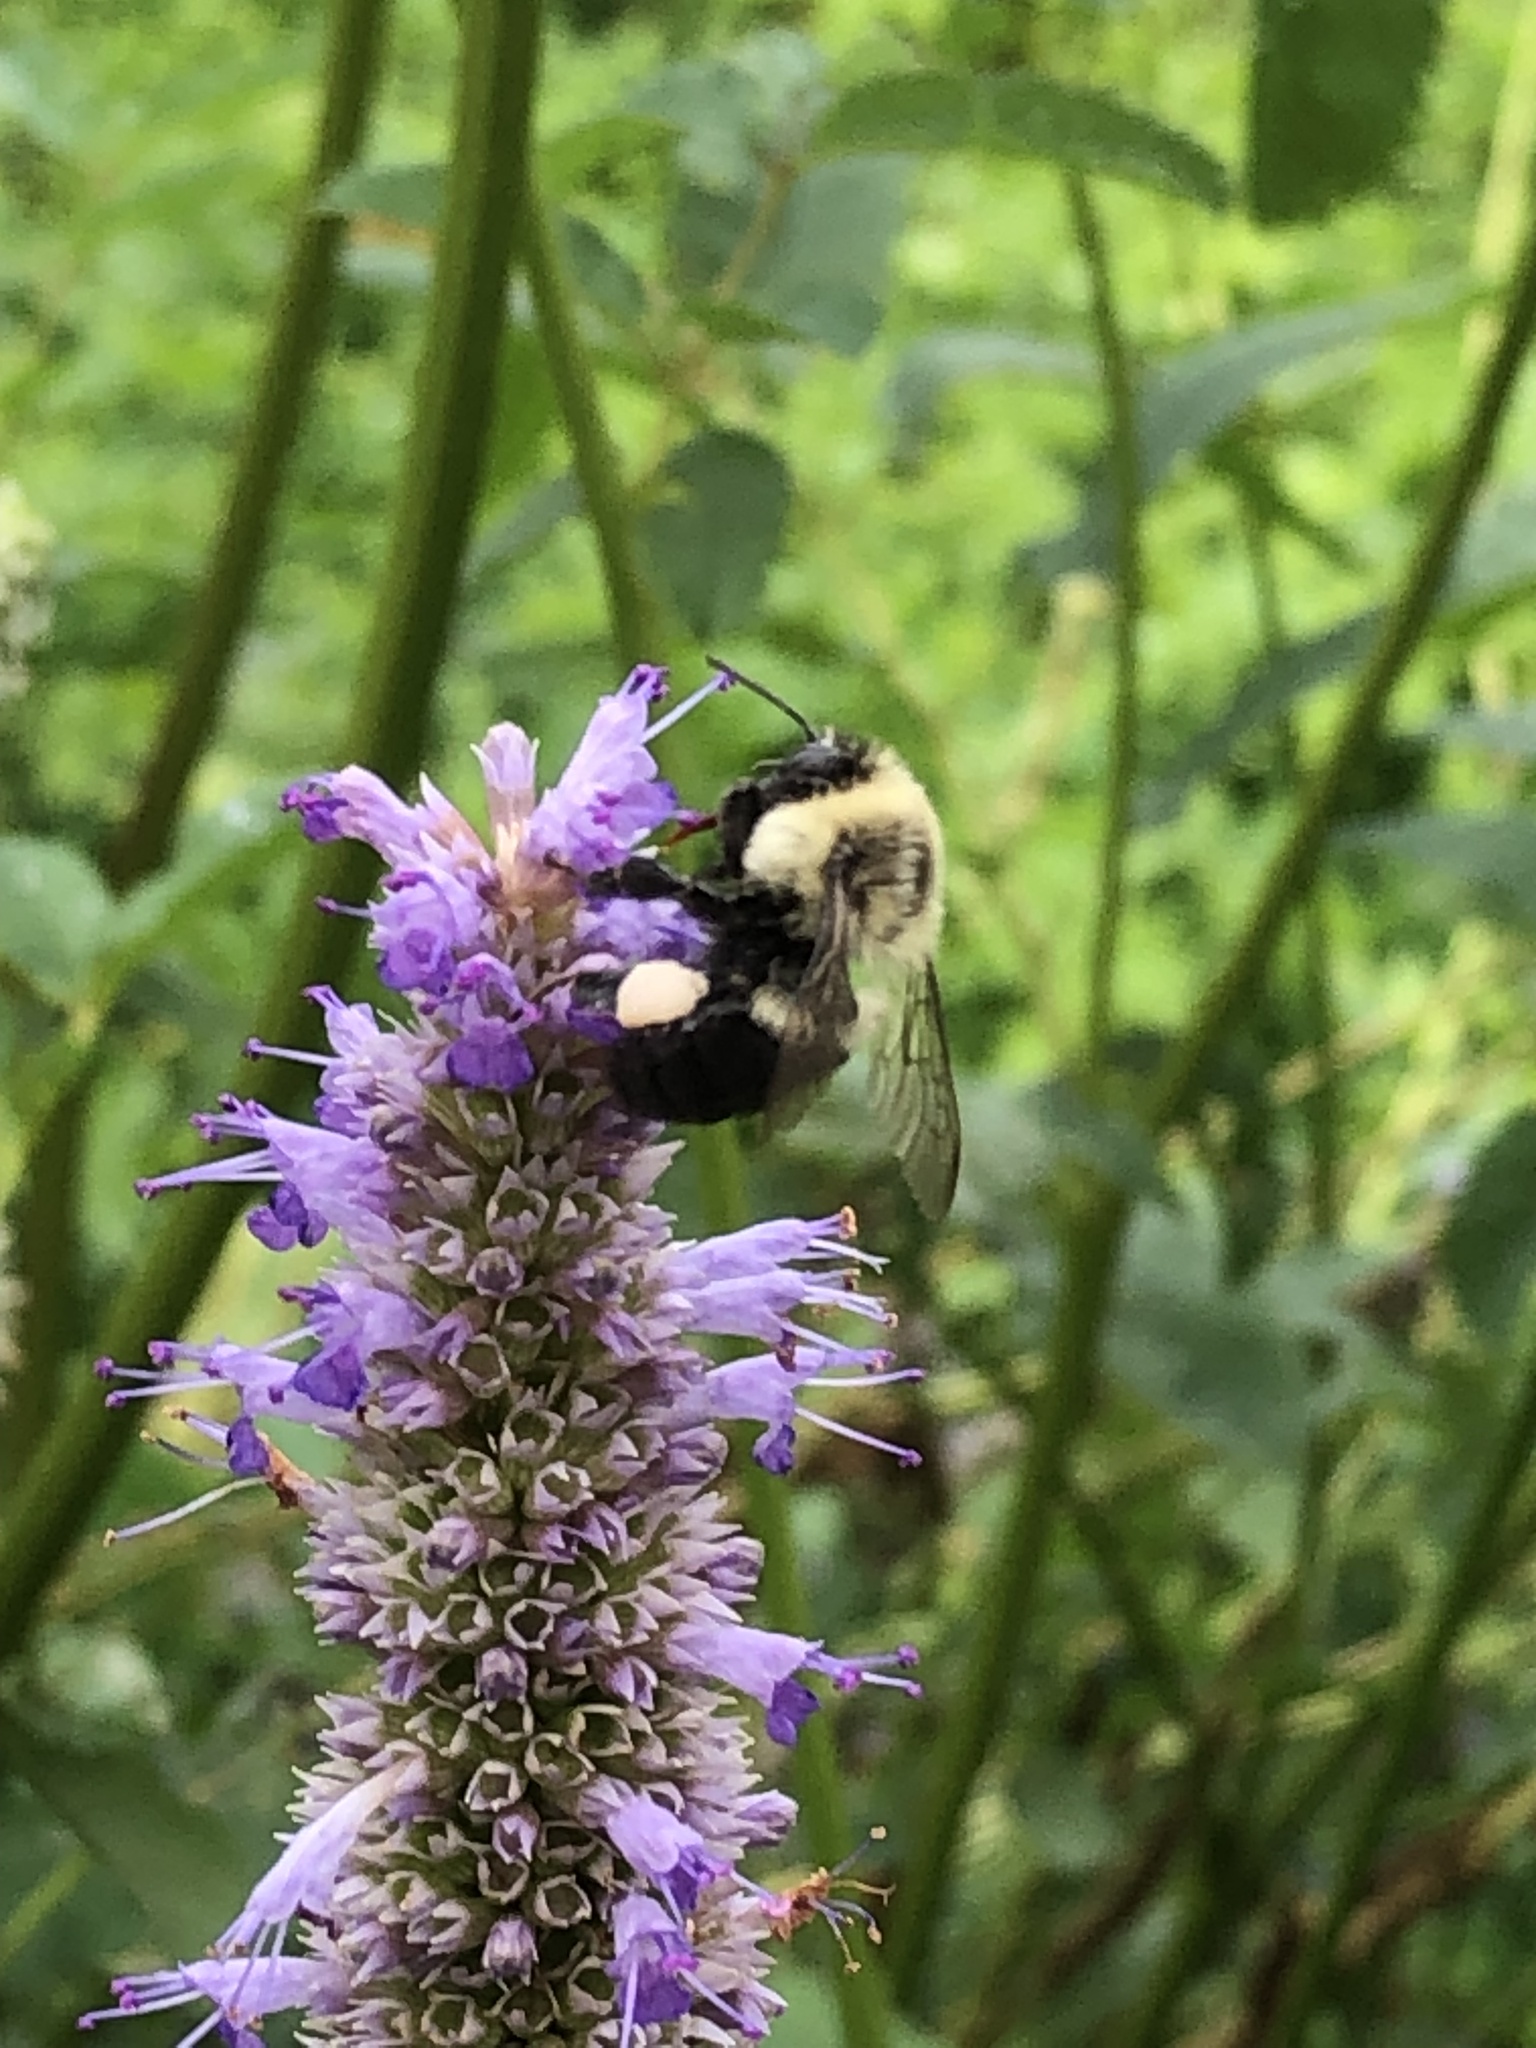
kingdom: Animalia
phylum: Arthropoda
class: Insecta
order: Hymenoptera
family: Apidae
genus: Bombus
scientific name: Bombus impatiens
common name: Common eastern bumble bee
